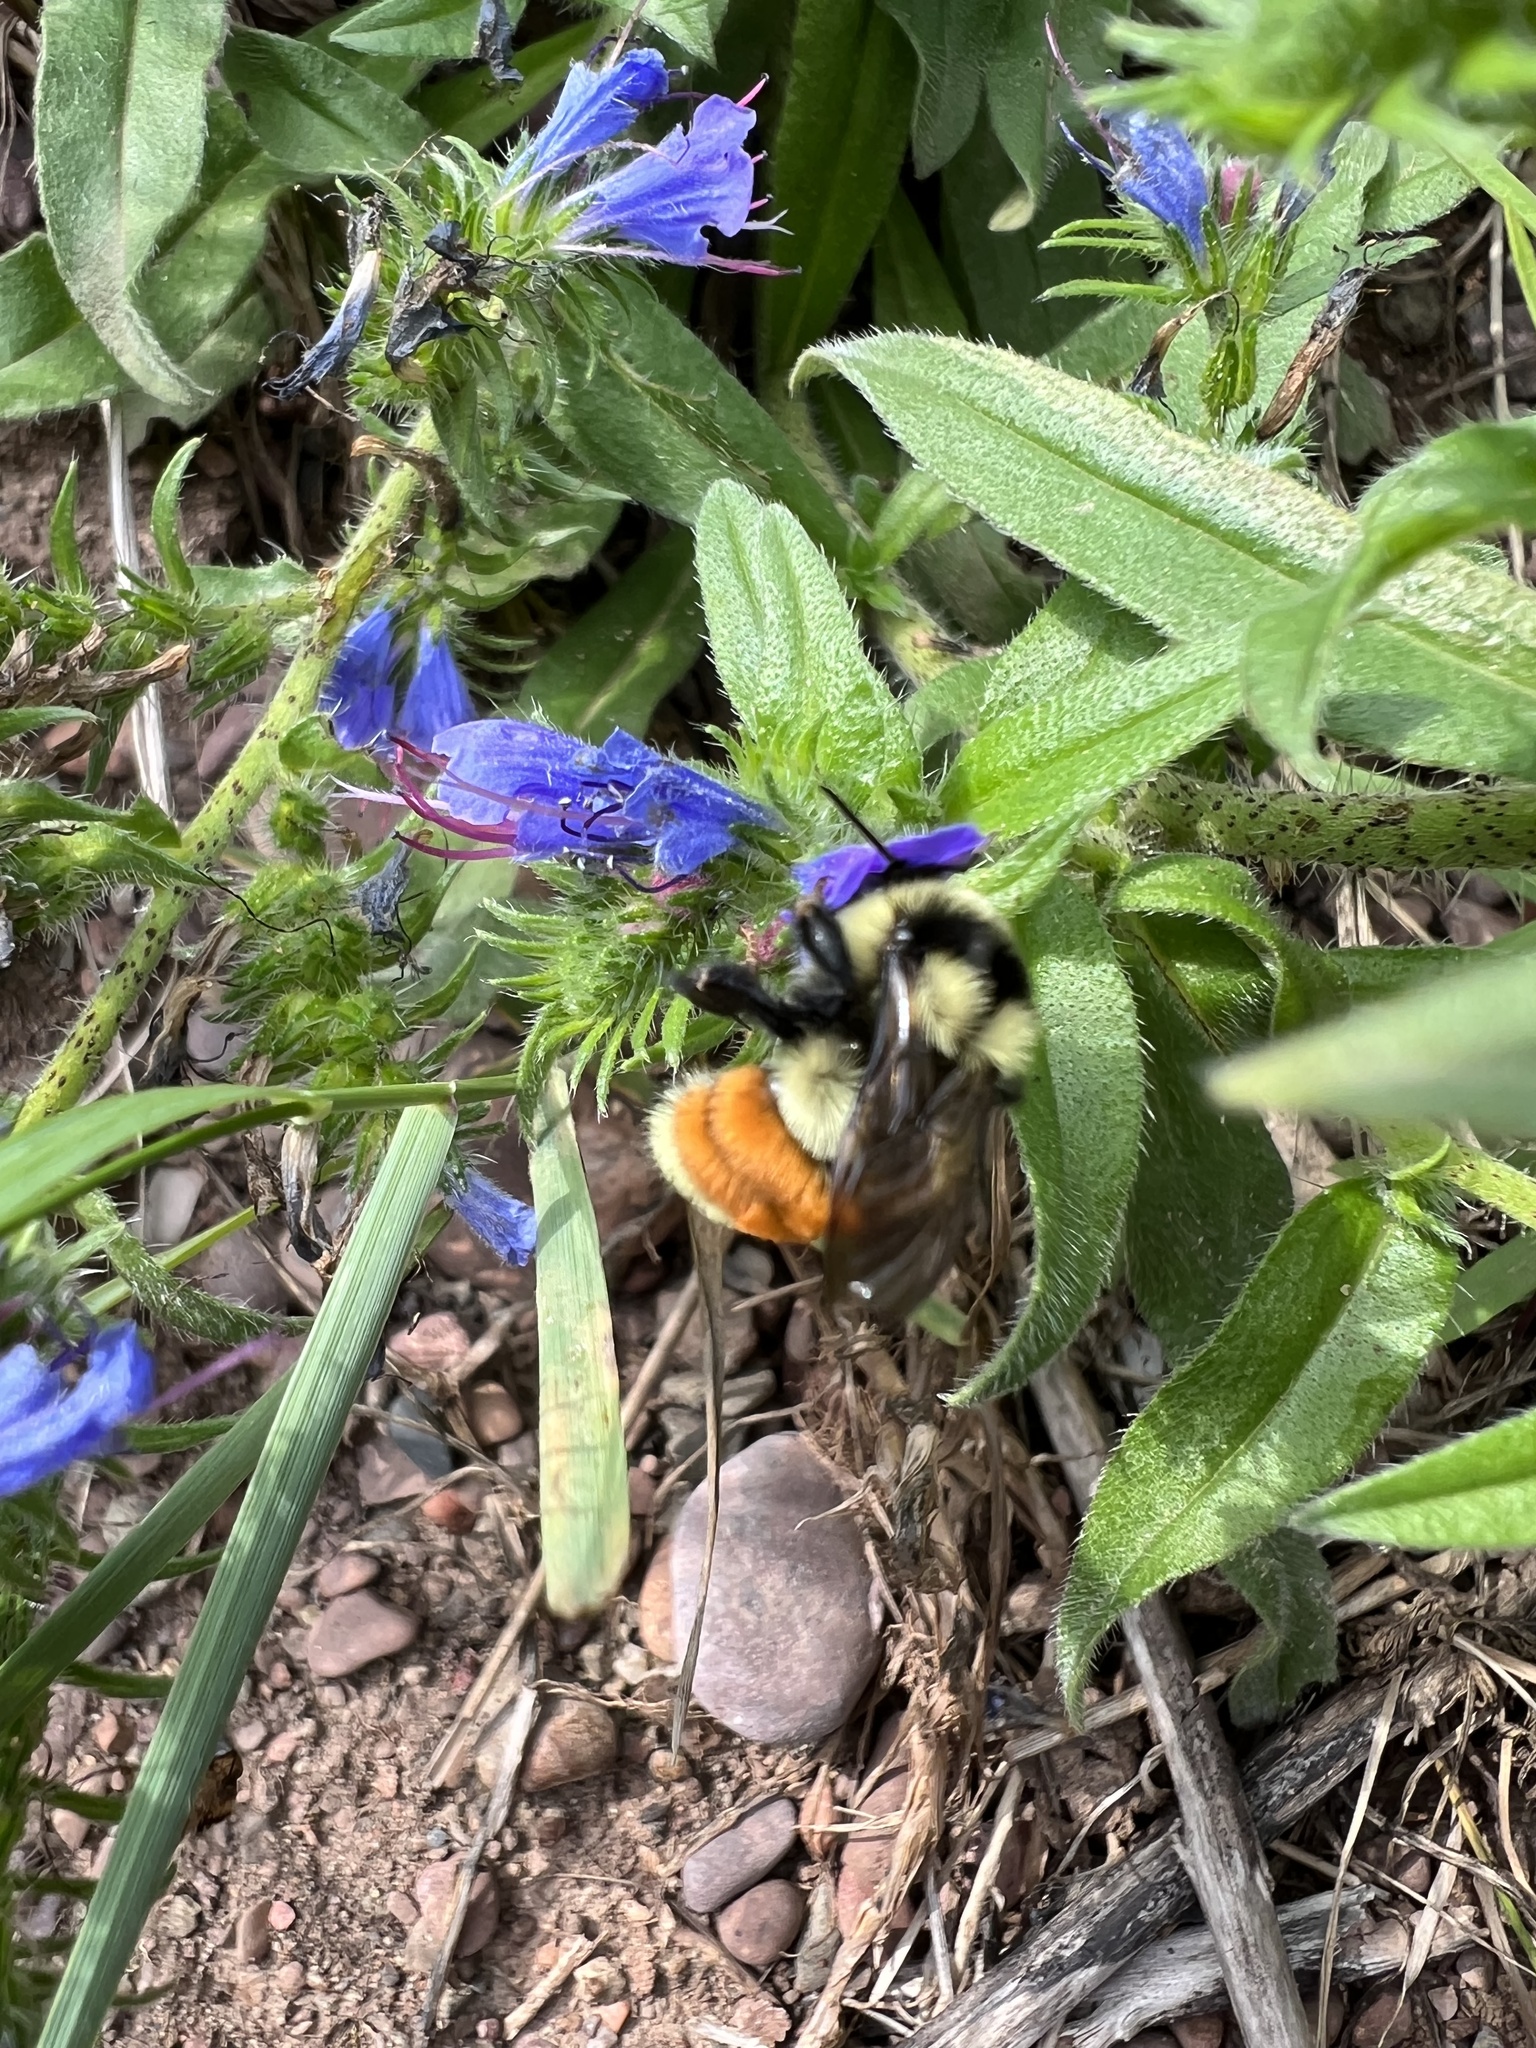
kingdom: Animalia
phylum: Arthropoda
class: Insecta
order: Hymenoptera
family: Apidae
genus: Bombus
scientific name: Bombus ternarius
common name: Tri-colored bumble bee
